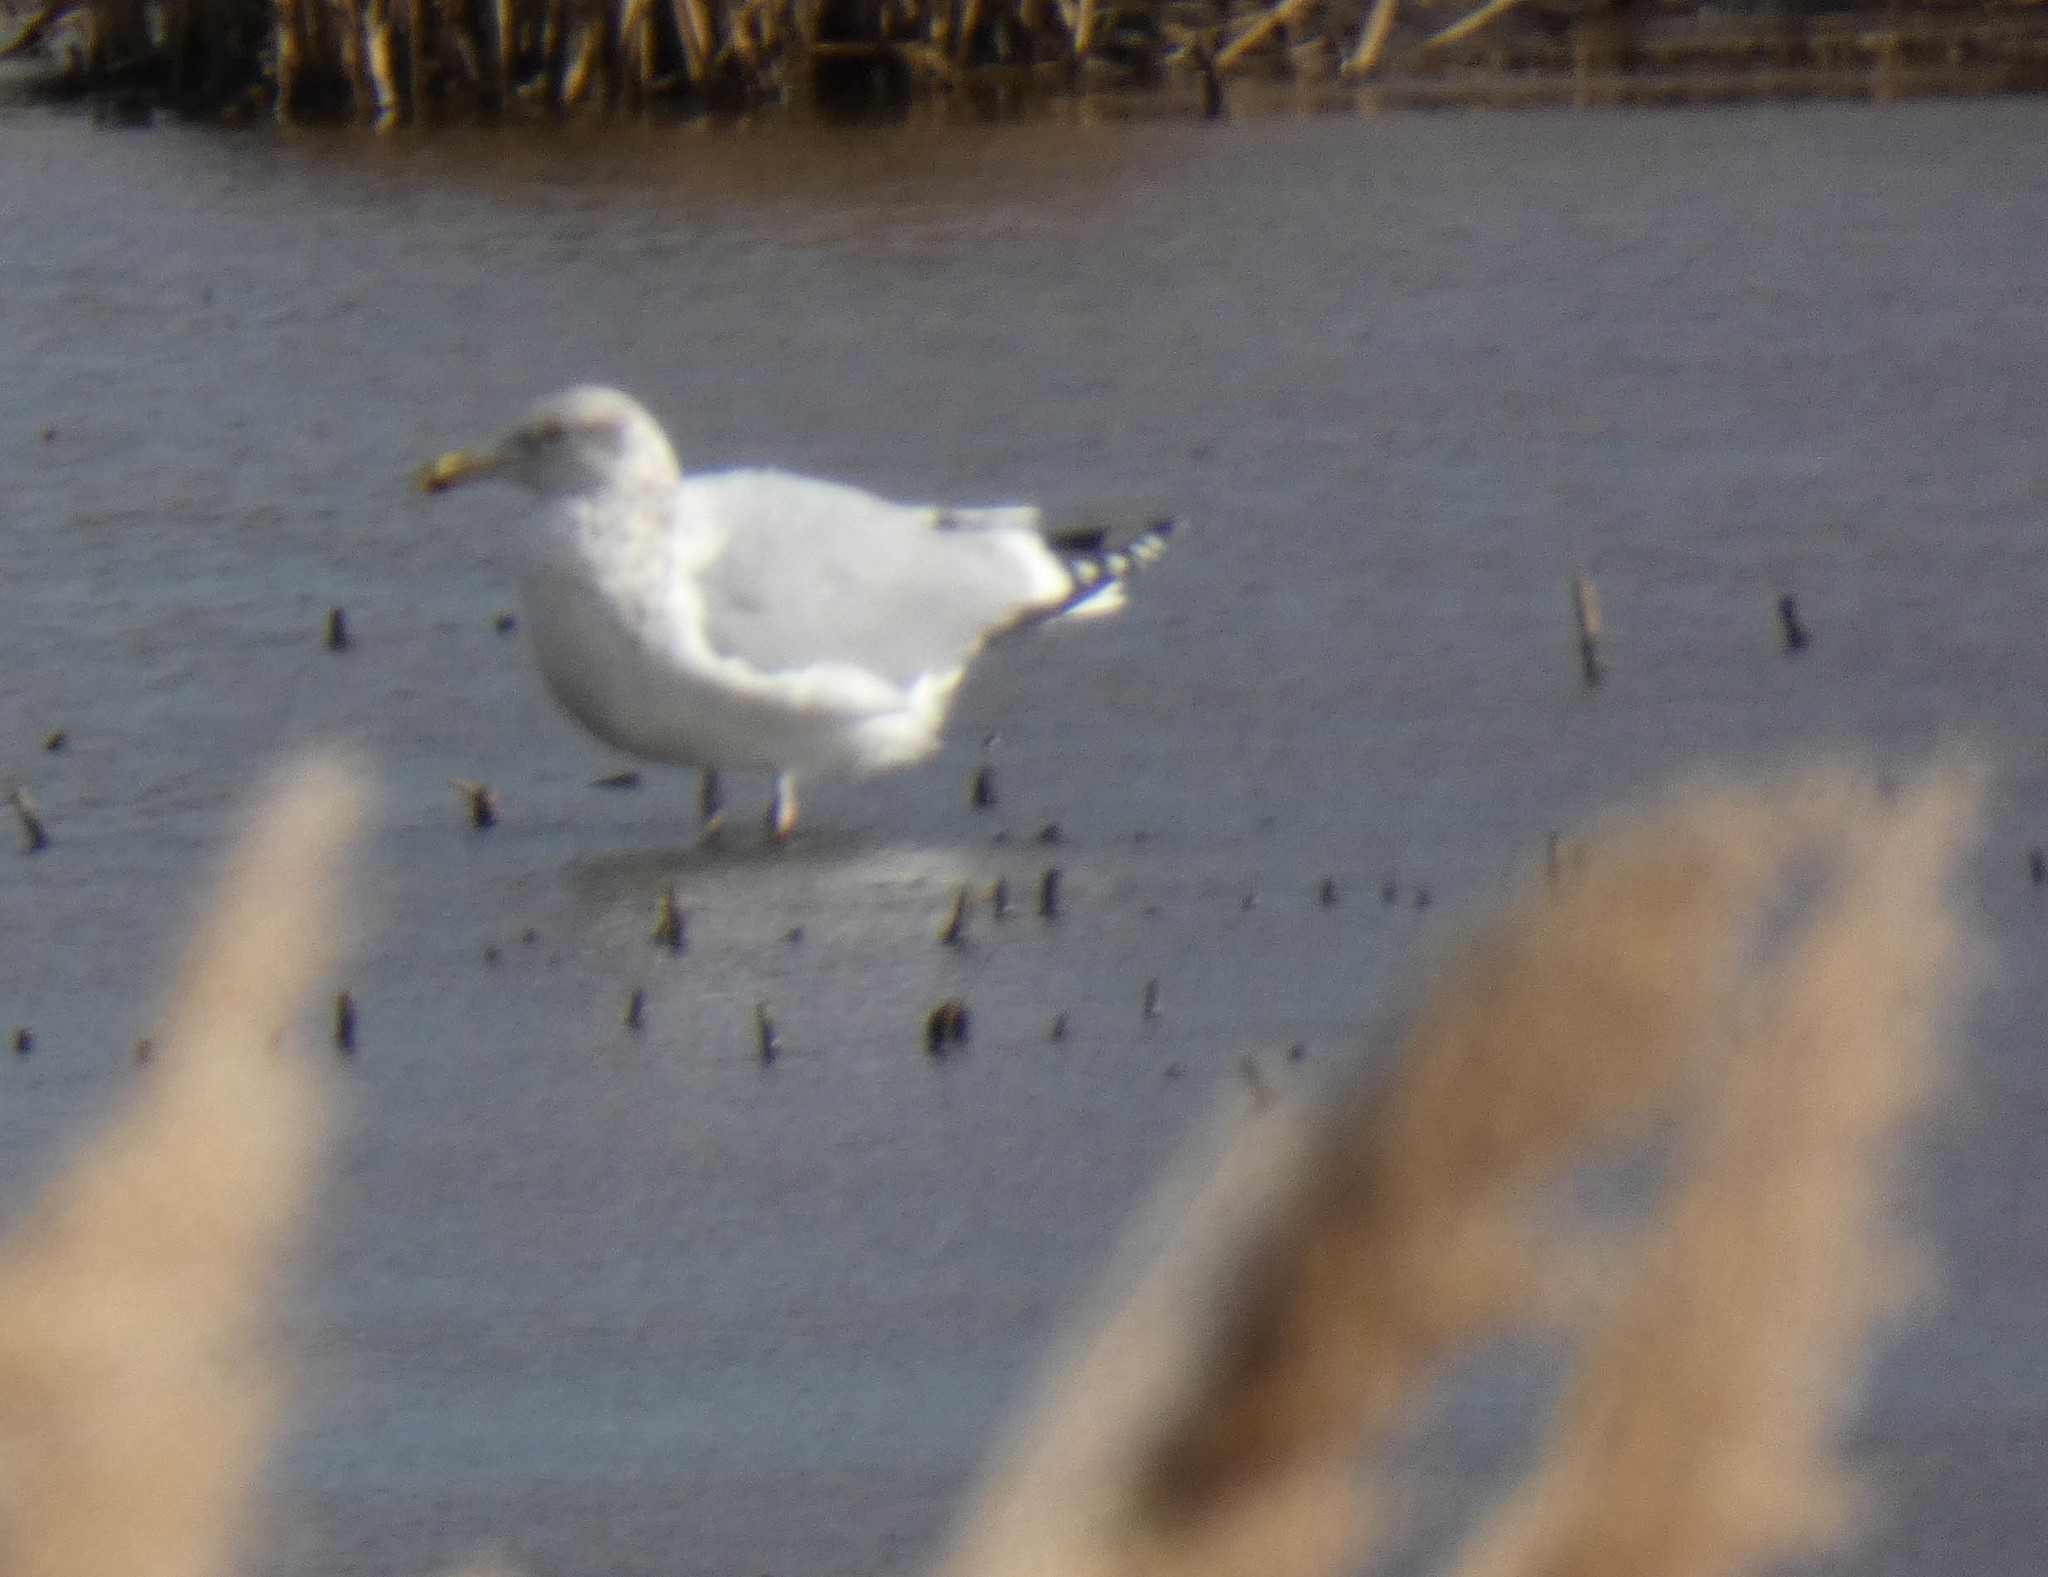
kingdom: Animalia
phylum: Chordata
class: Aves
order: Charadriiformes
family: Laridae
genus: Larus
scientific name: Larus argentatus
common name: Herring gull
